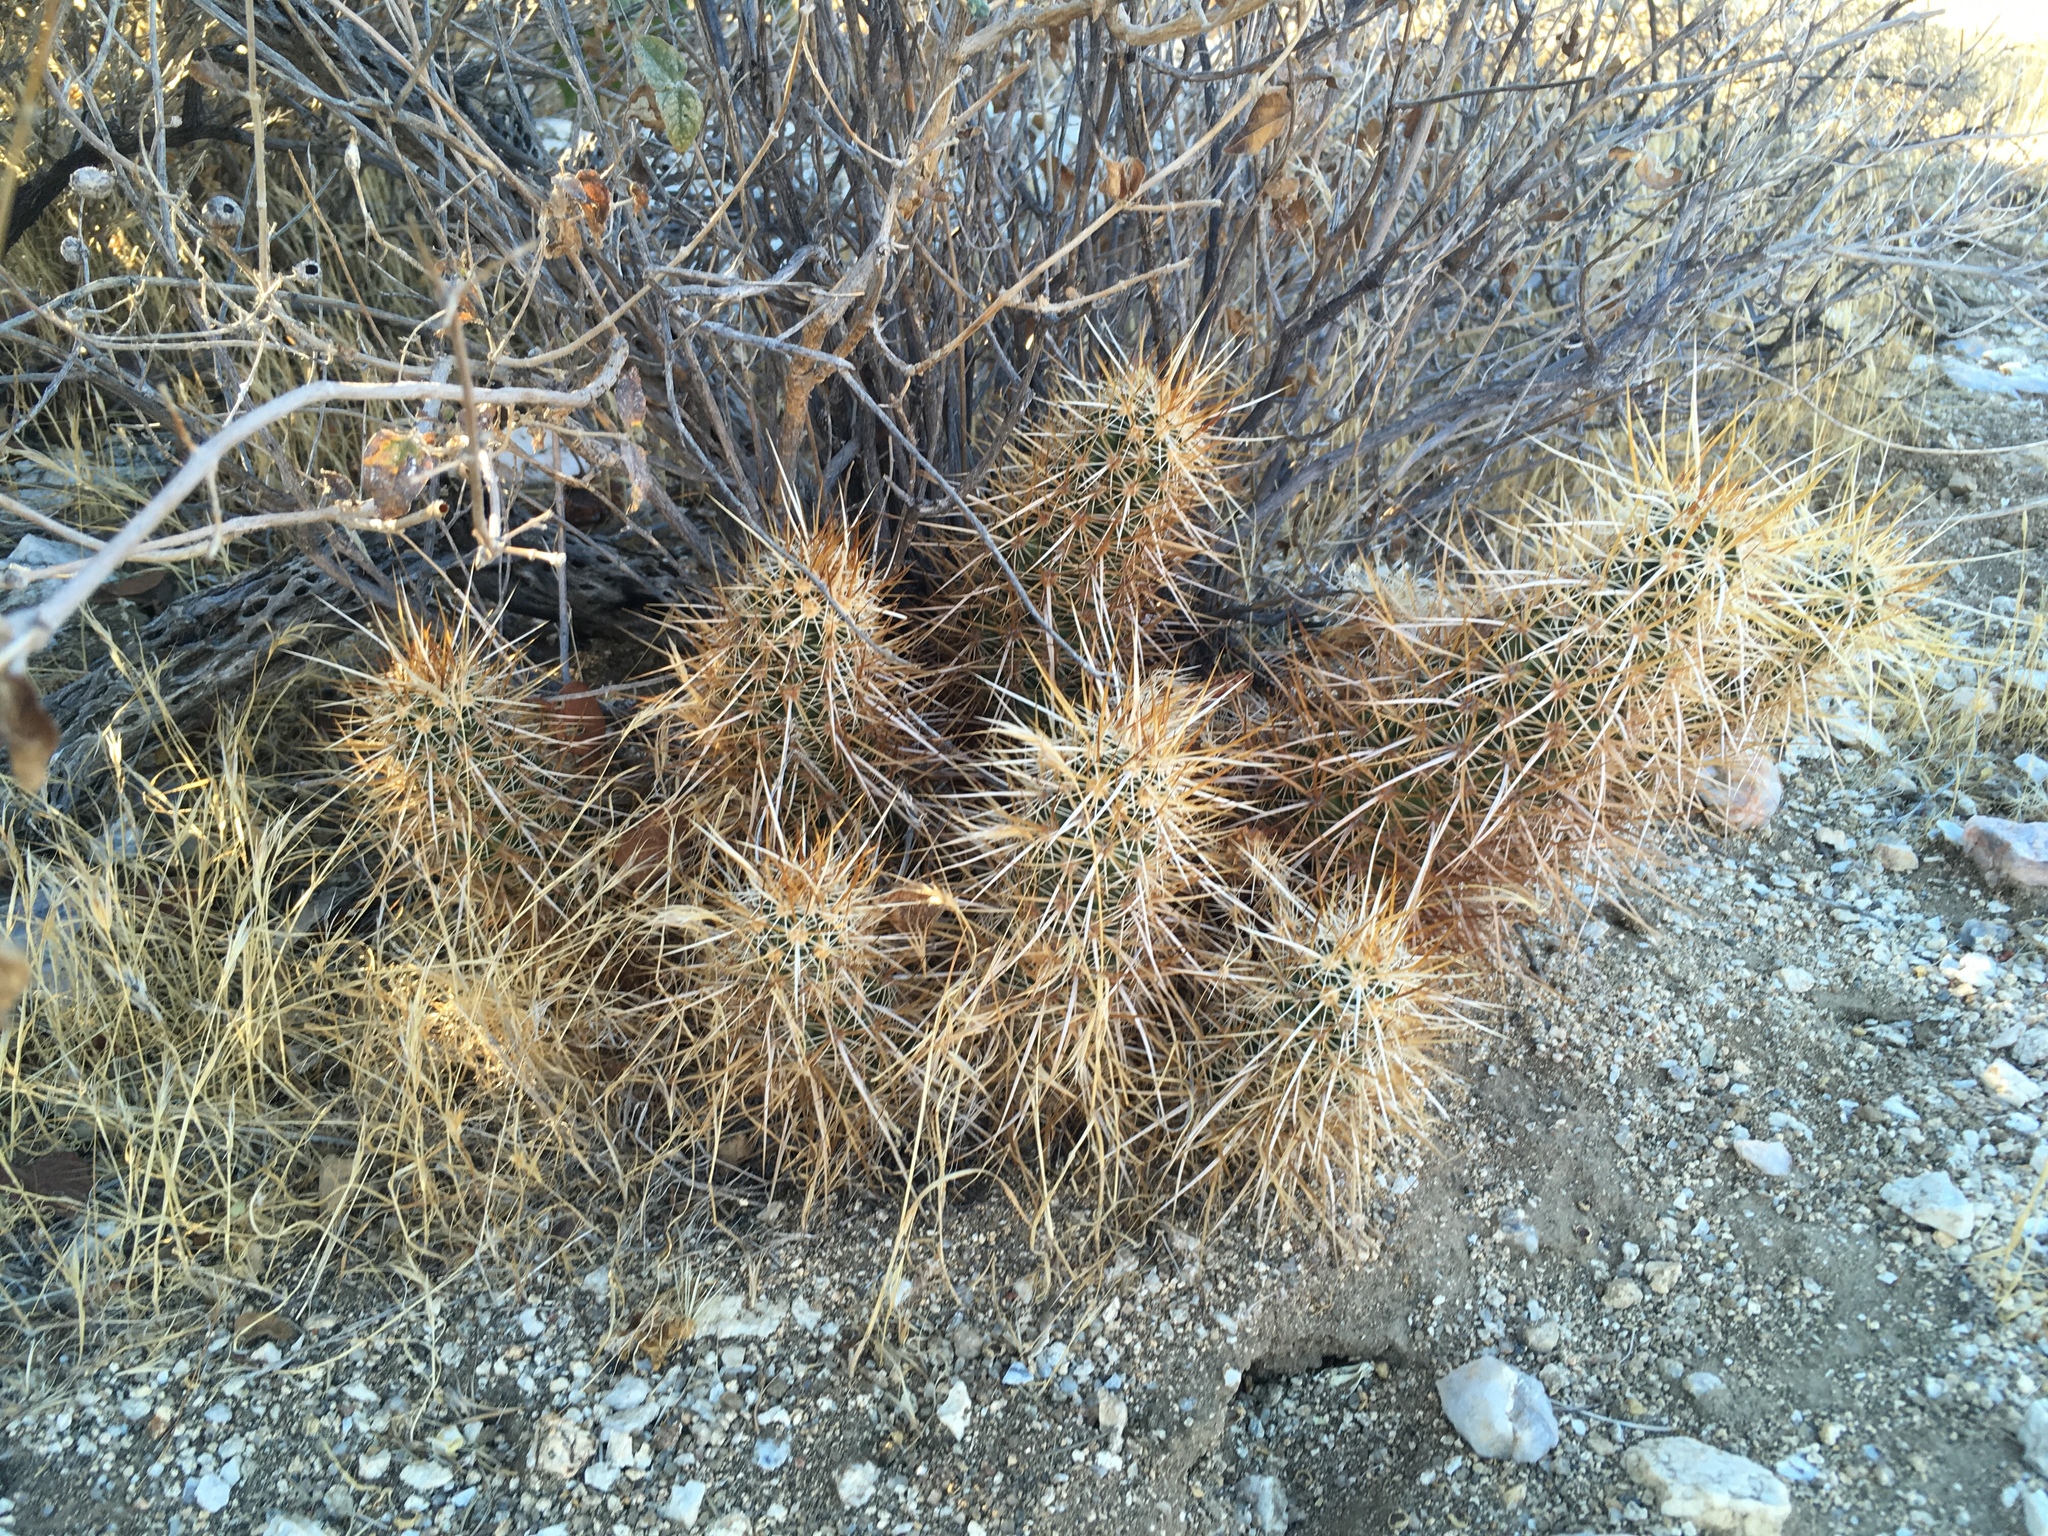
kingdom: Plantae
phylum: Tracheophyta
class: Magnoliopsida
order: Caryophyllales
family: Cactaceae
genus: Echinocereus
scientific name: Echinocereus engelmannii
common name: Engelmann's hedgehog cactus
